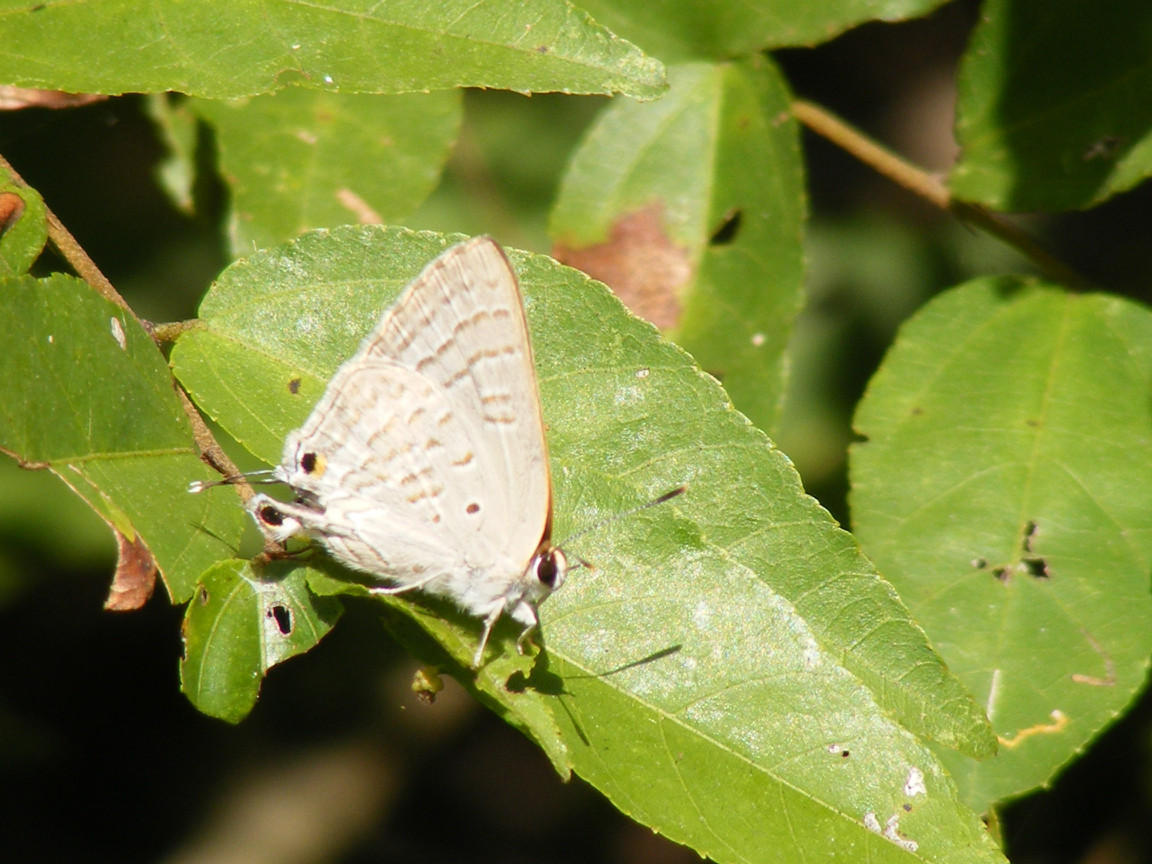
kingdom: Animalia
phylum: Arthropoda
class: Insecta
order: Lepidoptera
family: Lycaenidae
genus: Deudorix
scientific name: Deudorix antalus
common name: Brown playboy
